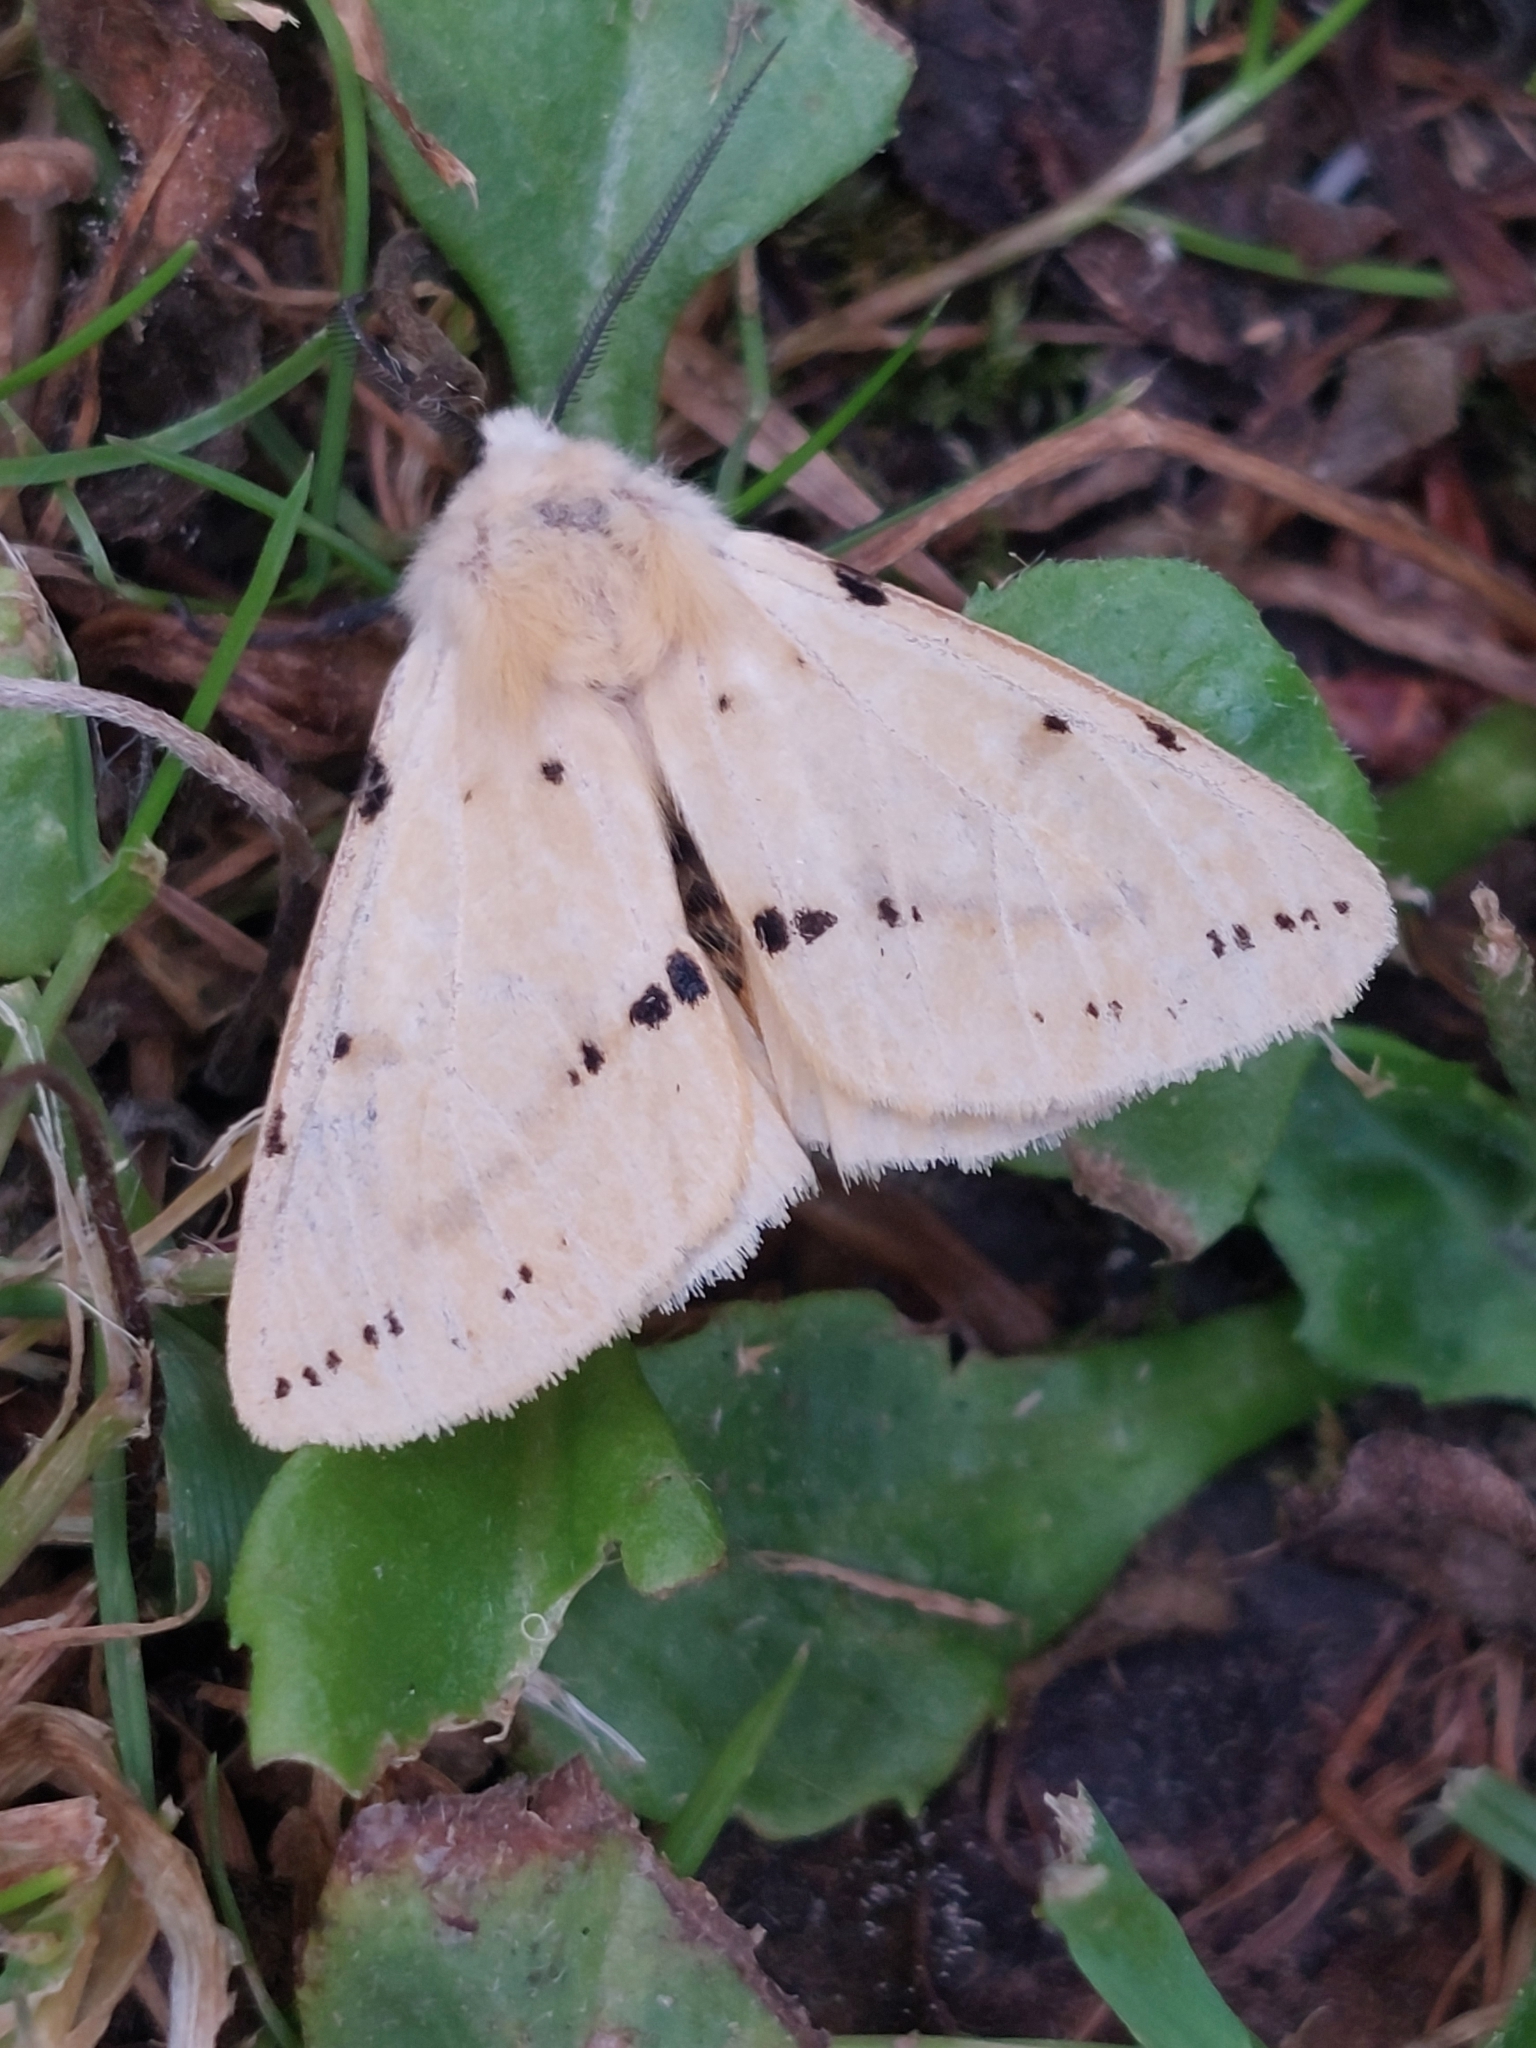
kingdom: Animalia
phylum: Arthropoda
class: Insecta
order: Lepidoptera
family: Erebidae
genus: Spilarctia
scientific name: Spilarctia lutea
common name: Buff ermine
